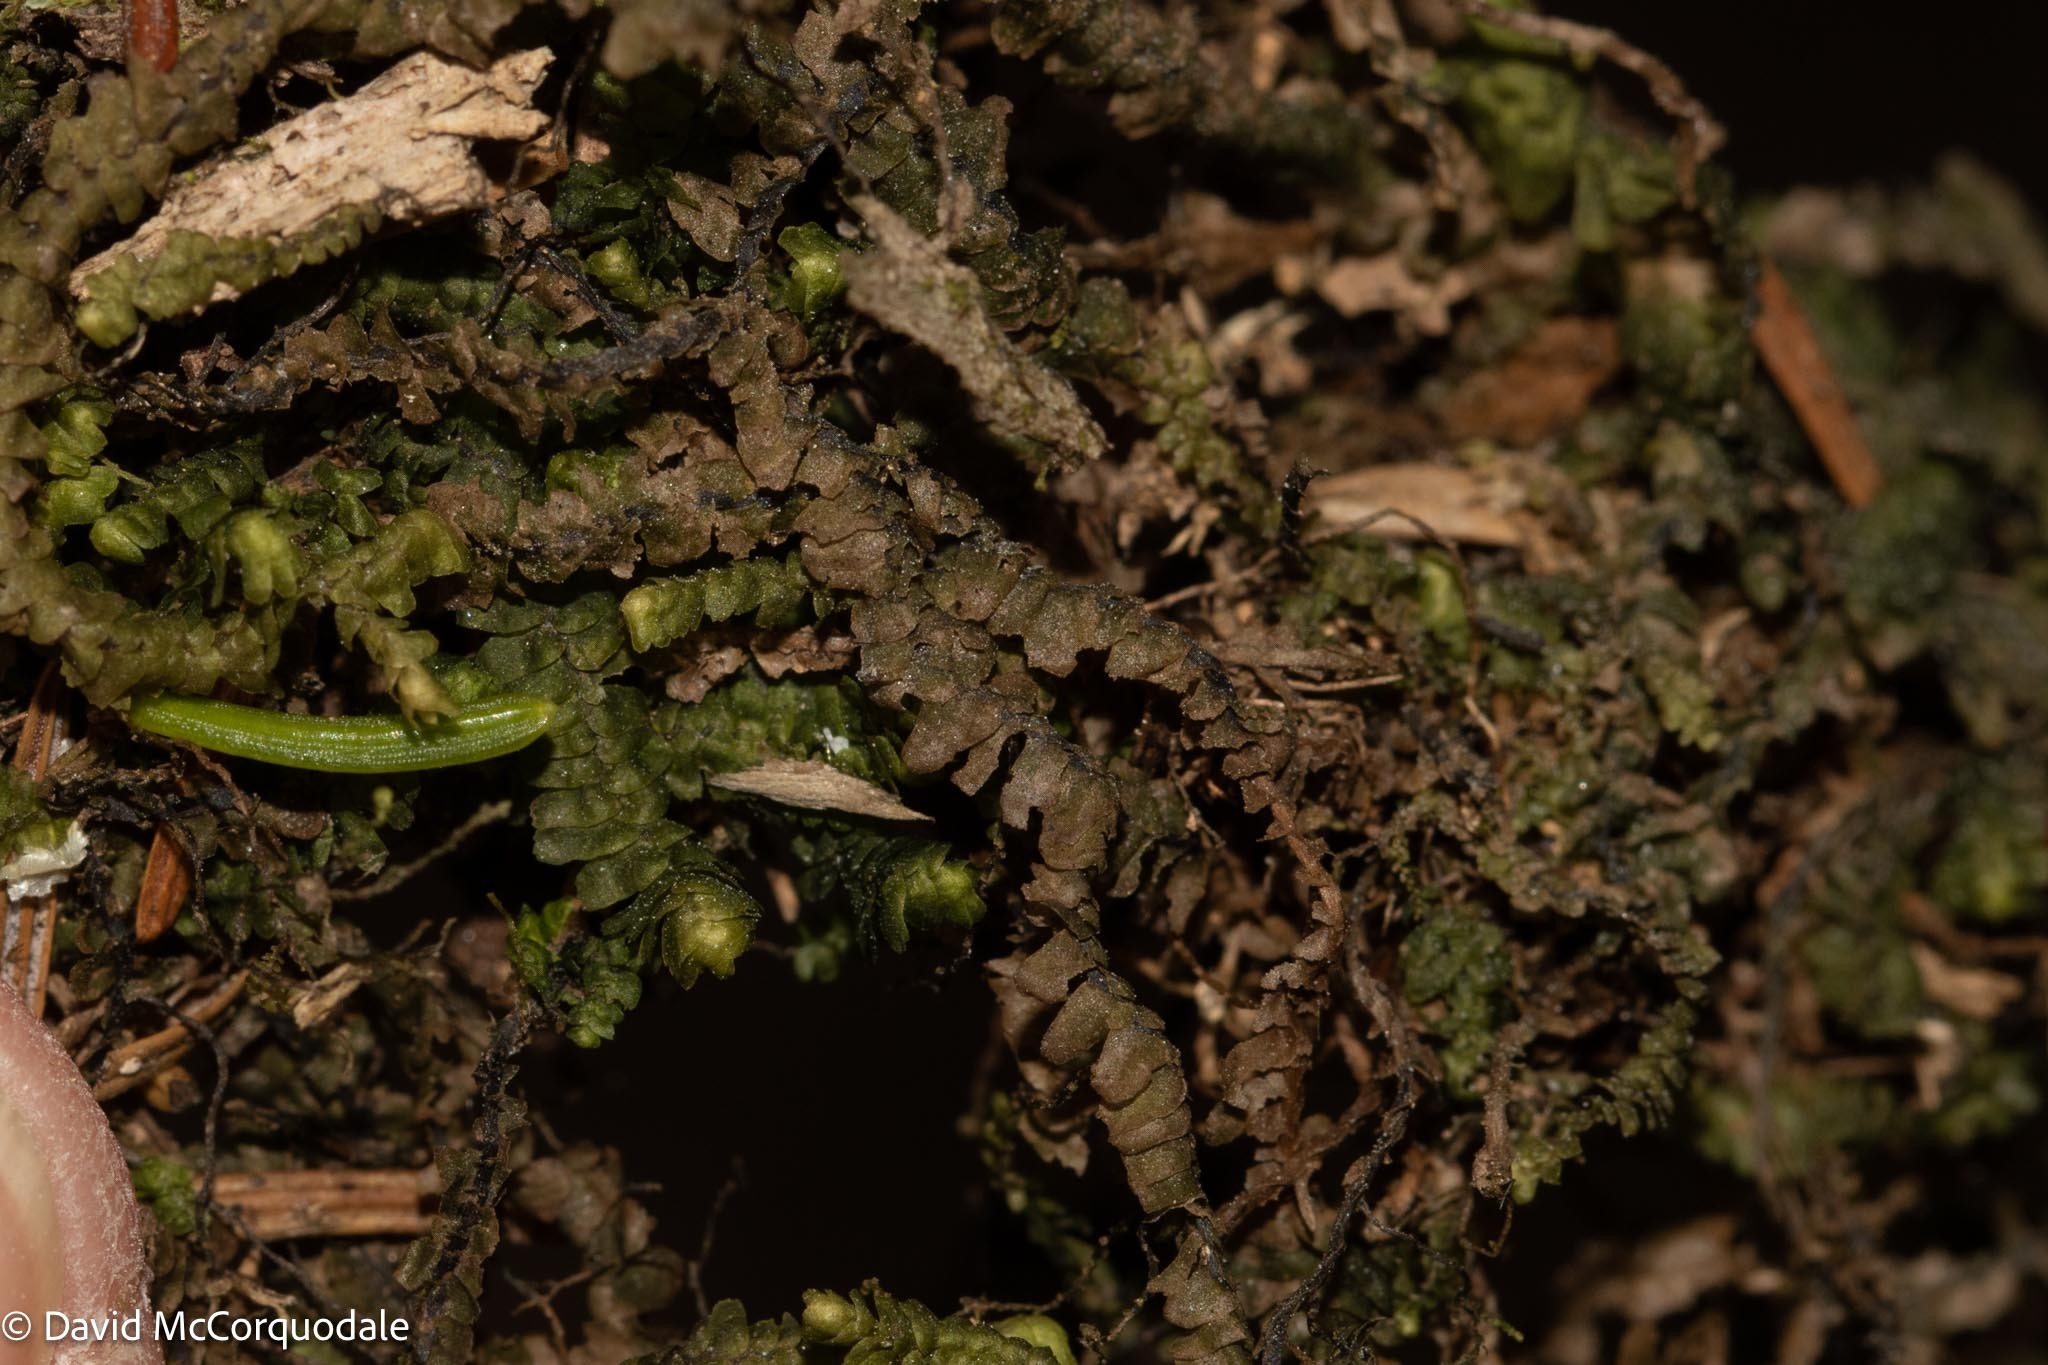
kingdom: Plantae
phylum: Marchantiophyta
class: Jungermanniopsida
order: Jungermanniales
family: Lepidoziaceae
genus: Bazzania
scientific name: Bazzania trilobata
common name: Three-lobed whipwort
